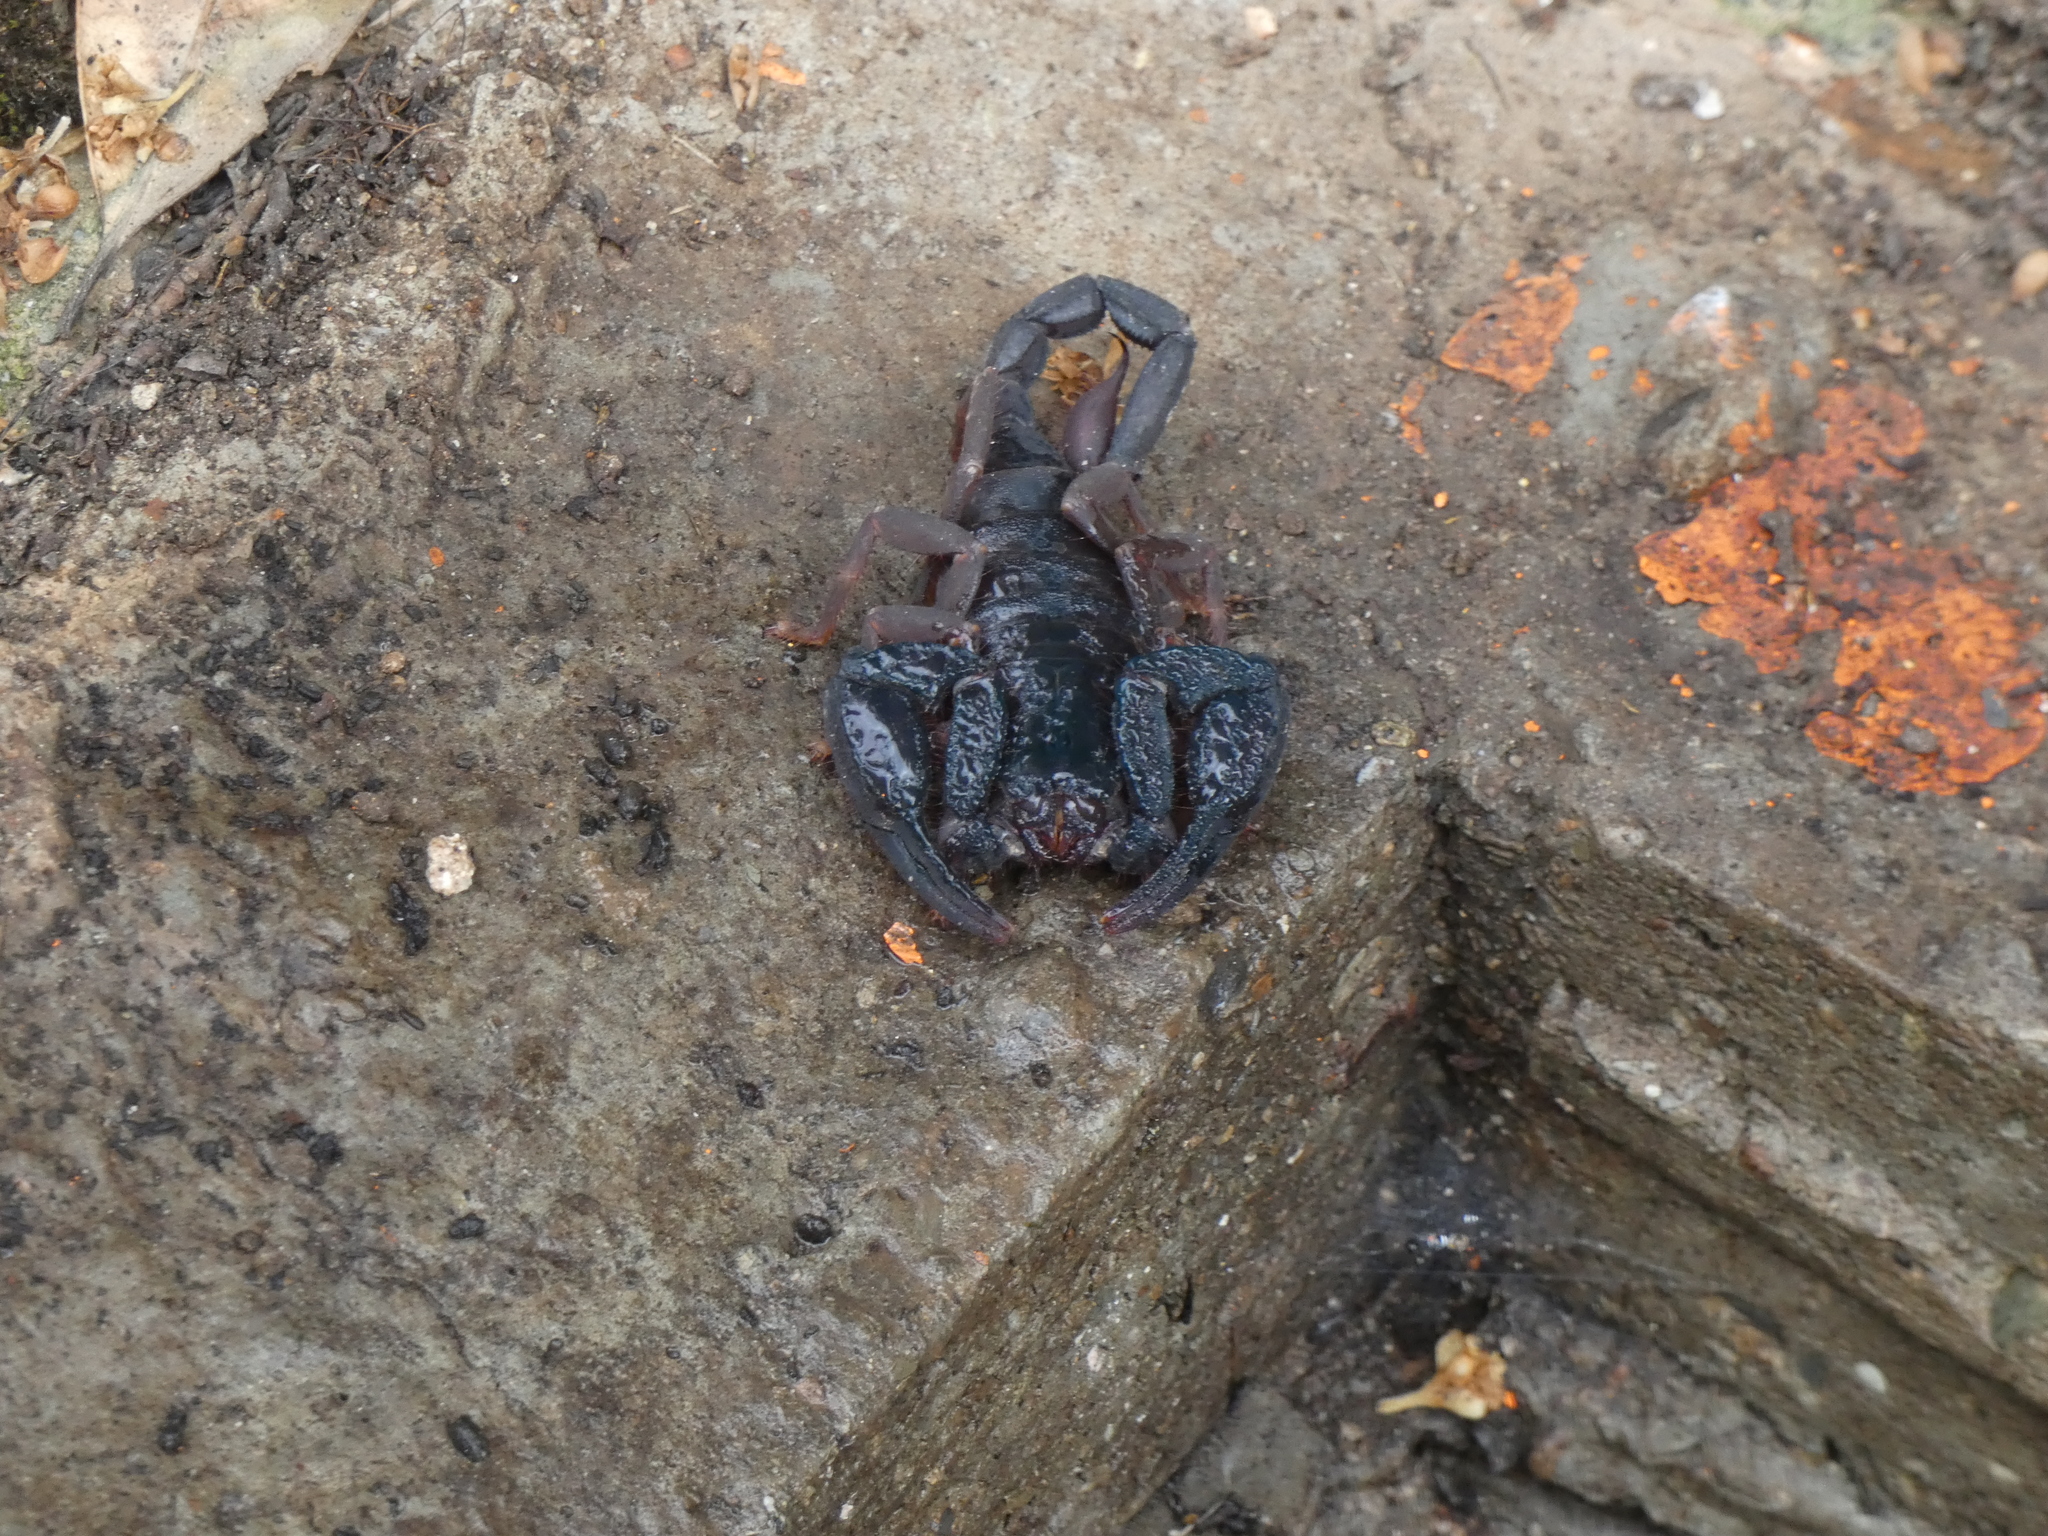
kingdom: Animalia
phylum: Arthropoda
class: Arachnida
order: Scorpiones
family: Iuridae
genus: Iurus
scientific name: Iurus dufoureius
